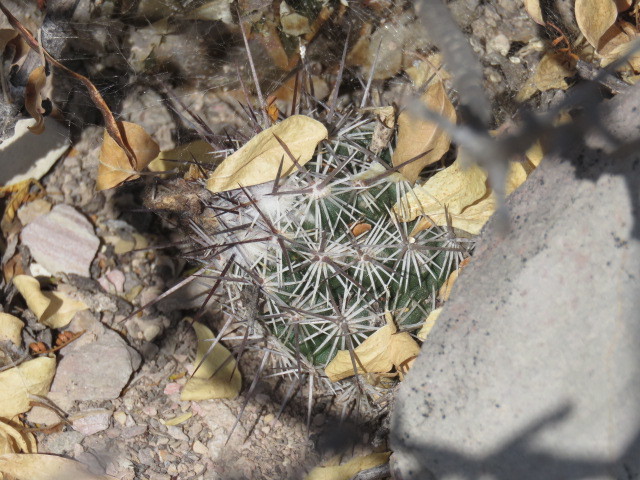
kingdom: Plantae
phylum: Tracheophyta
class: Magnoliopsida
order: Caryophyllales
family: Cactaceae
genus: Cochemiea
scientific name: Cochemiea conoidea
